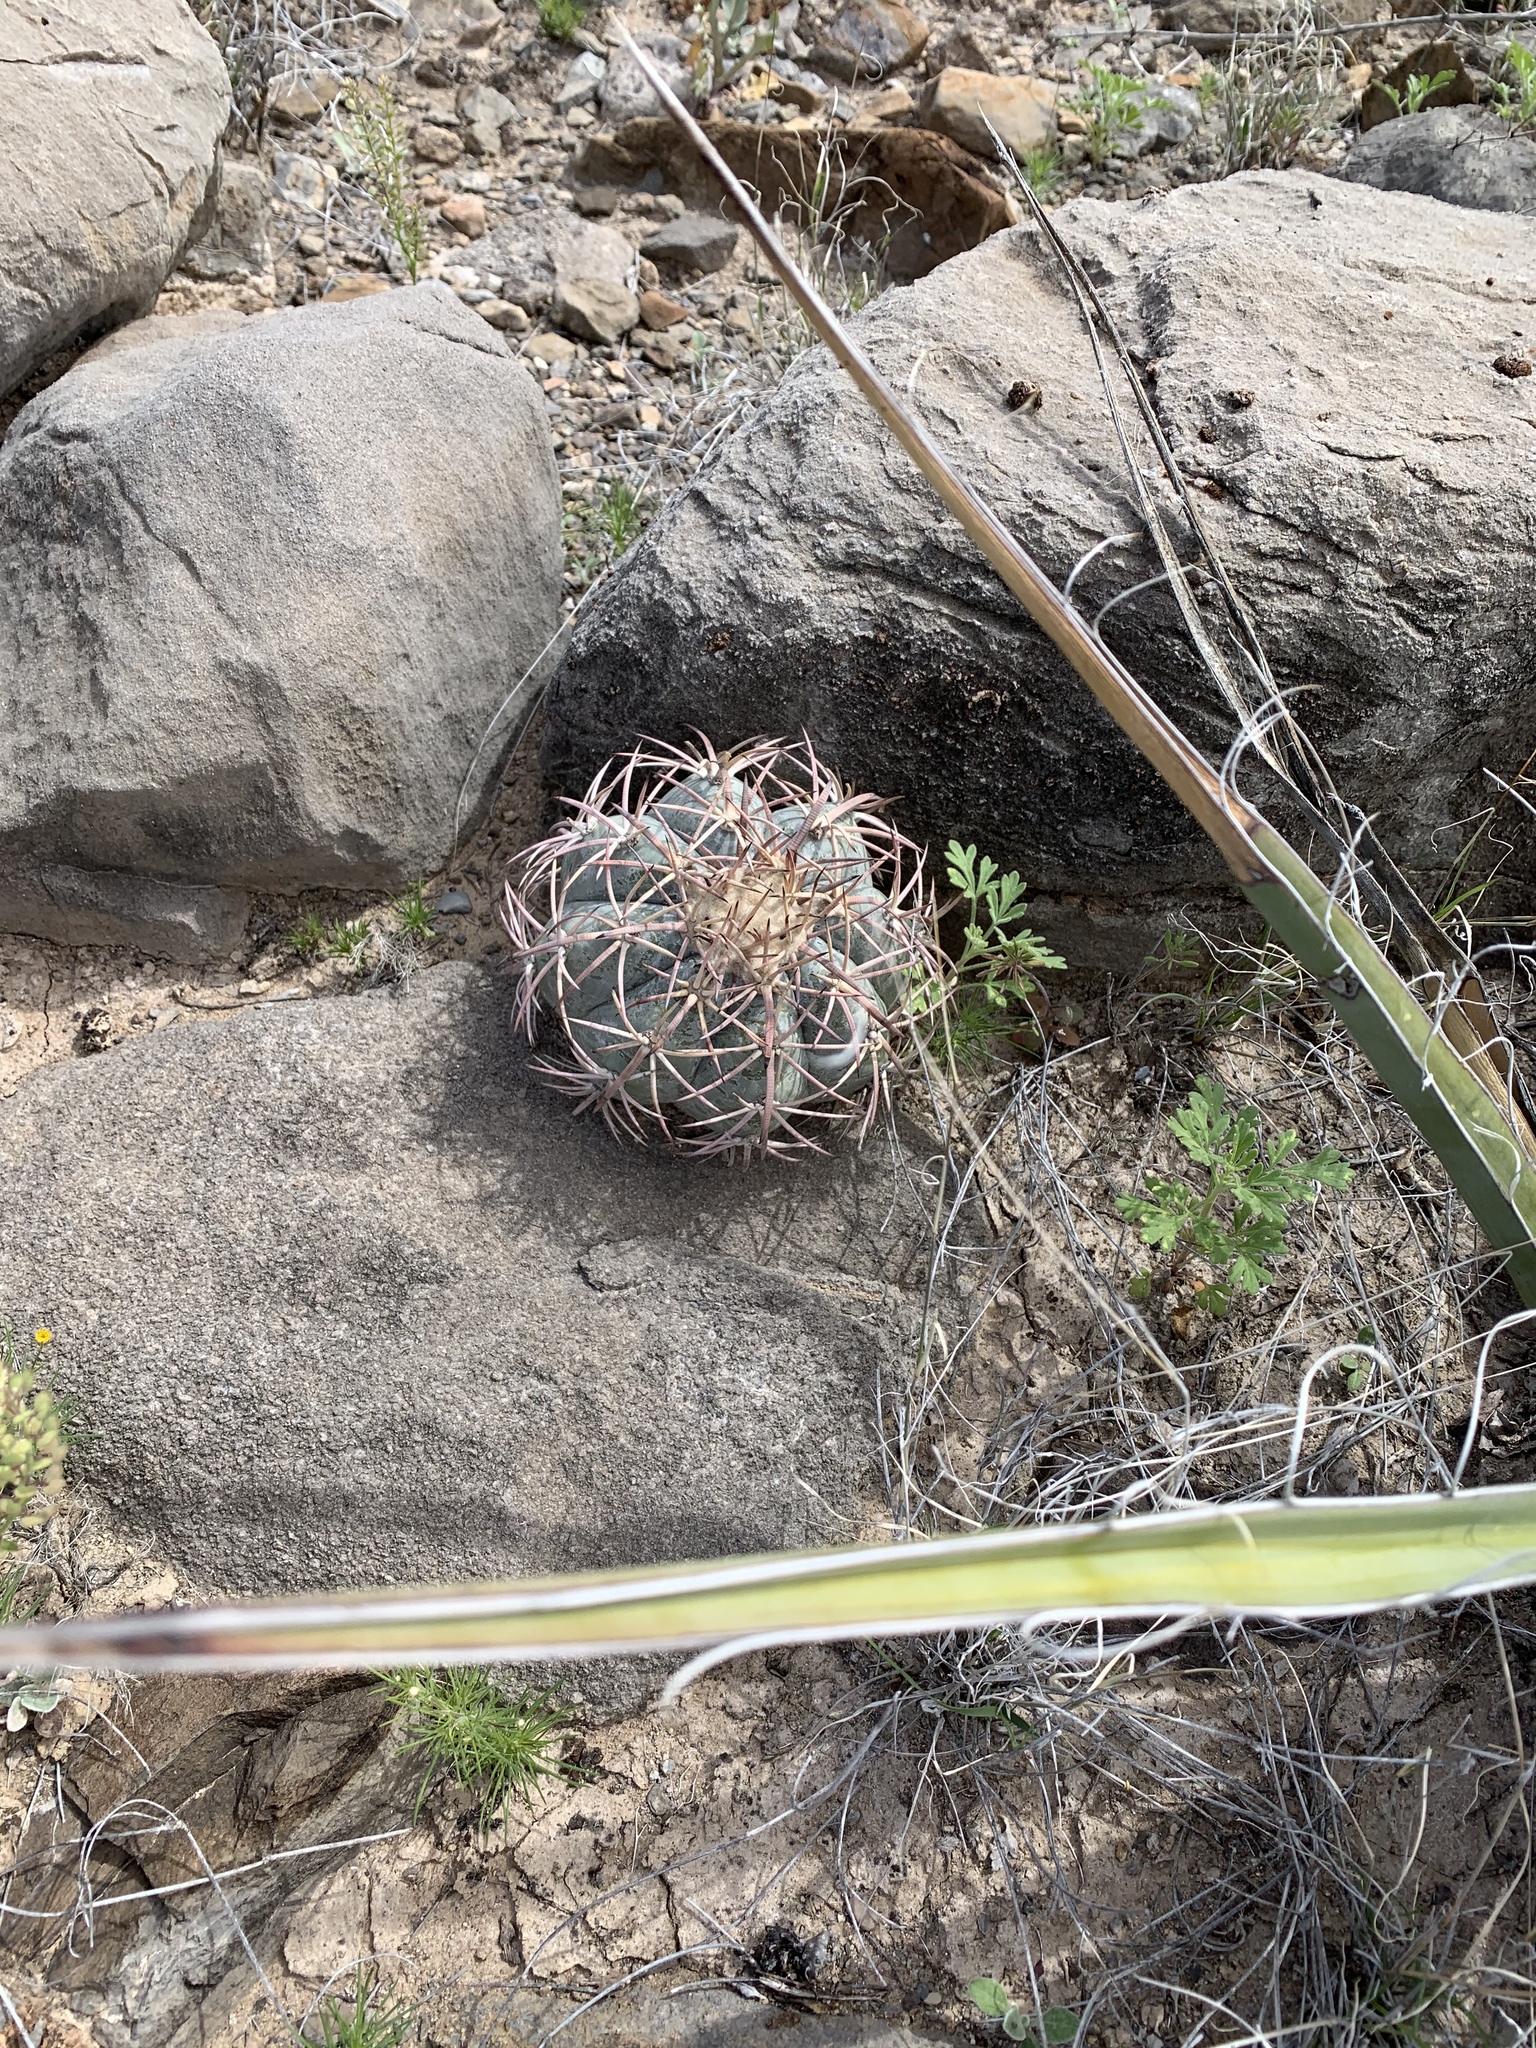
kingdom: Plantae
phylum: Tracheophyta
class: Magnoliopsida
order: Caryophyllales
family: Cactaceae
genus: Echinocactus
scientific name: Echinocactus horizonthalonius
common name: Devilshead
